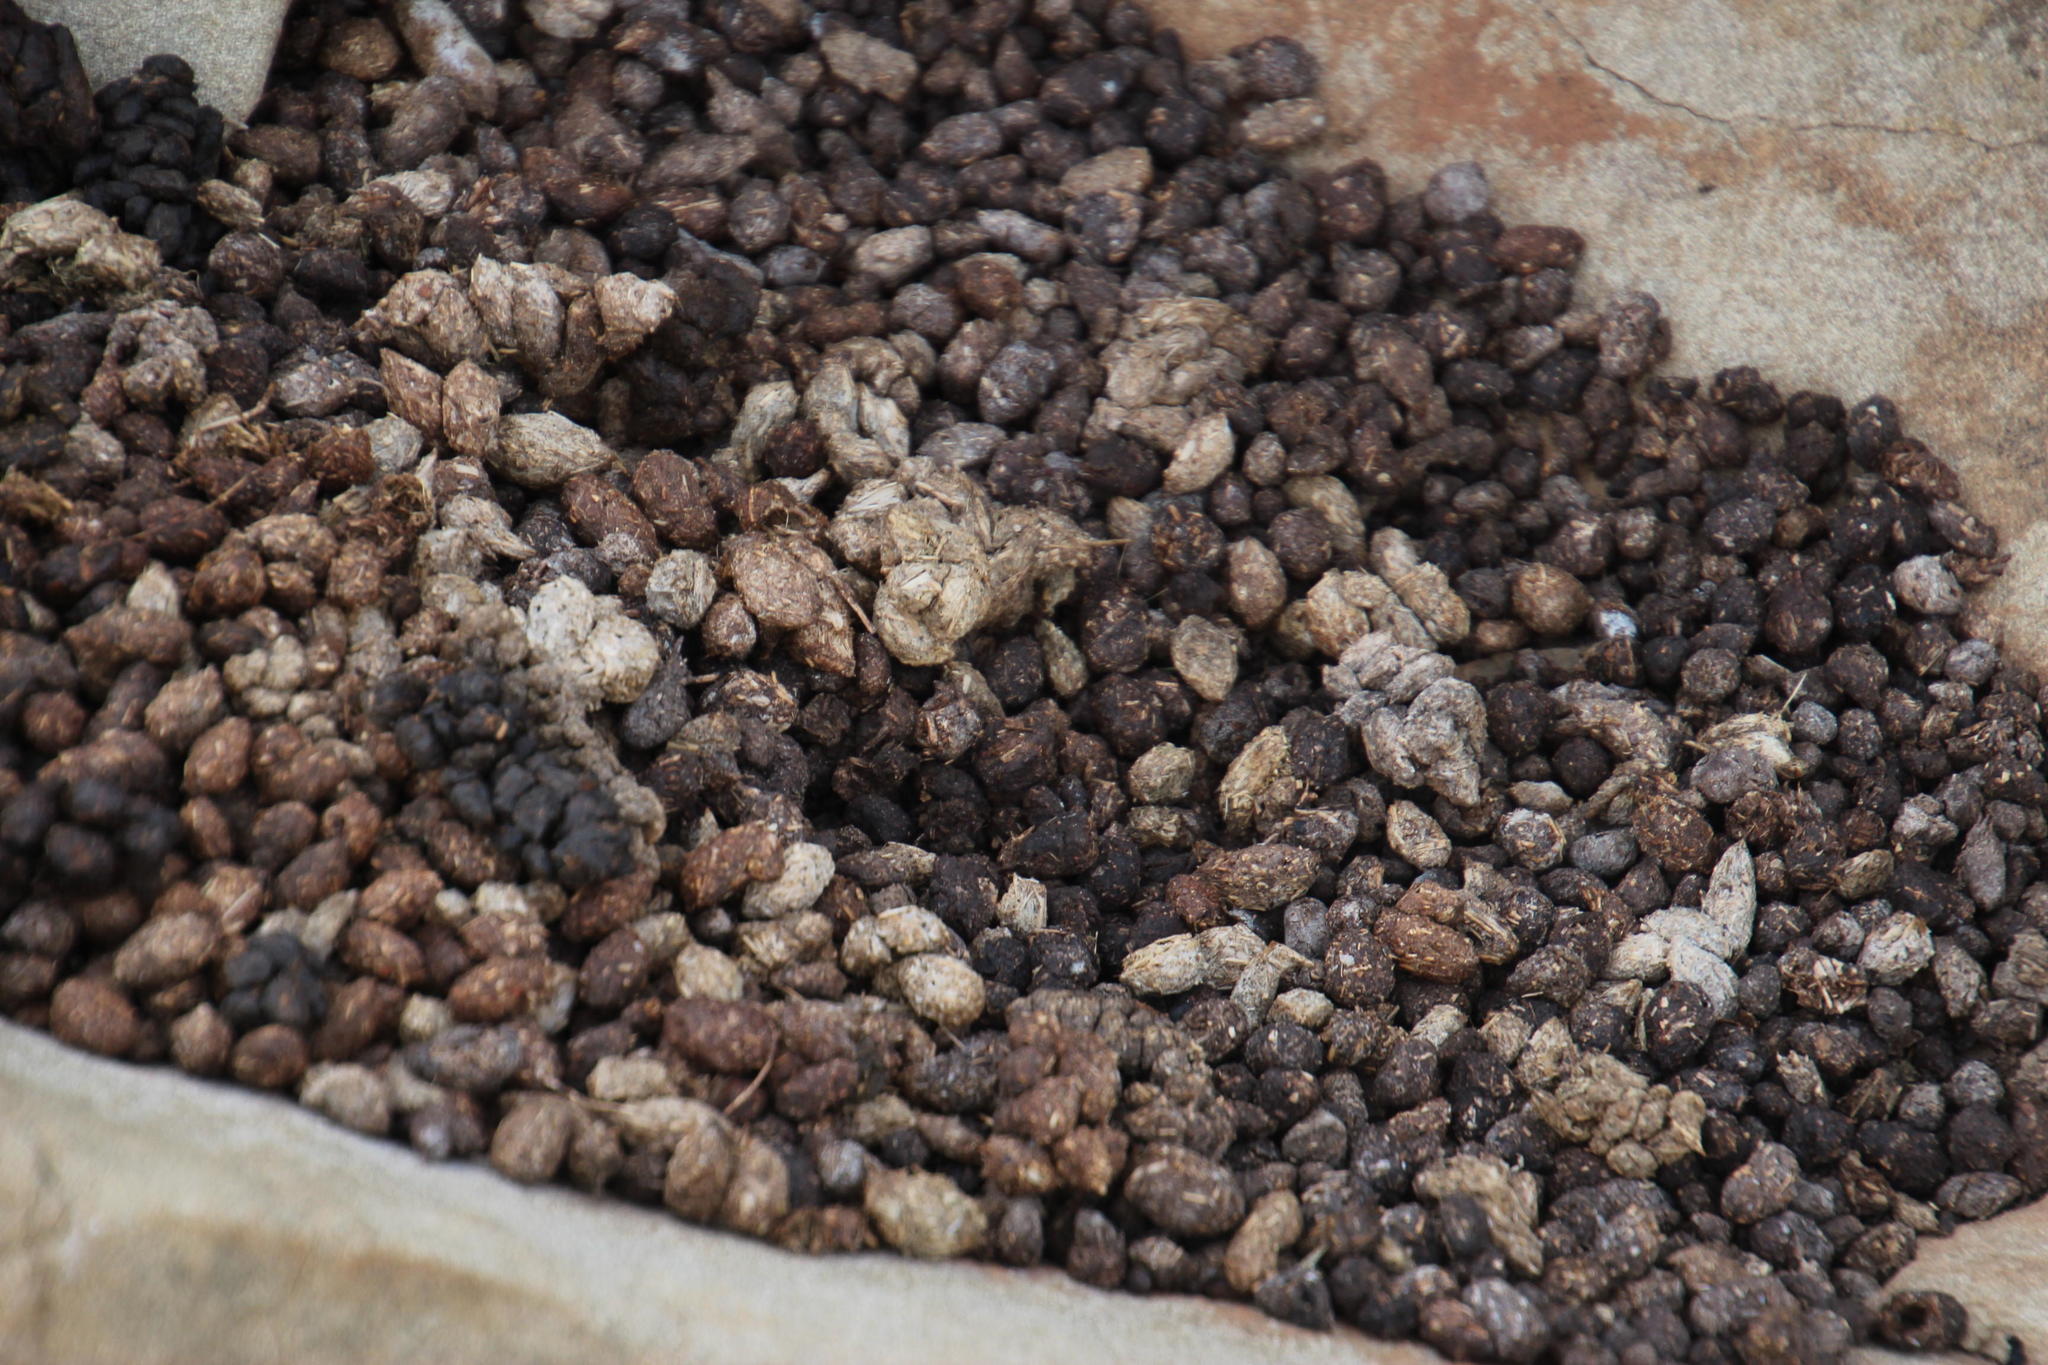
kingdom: Animalia
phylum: Chordata
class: Mammalia
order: Hyracoidea
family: Procaviidae
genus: Procavia
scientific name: Procavia capensis
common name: Rock hyrax
